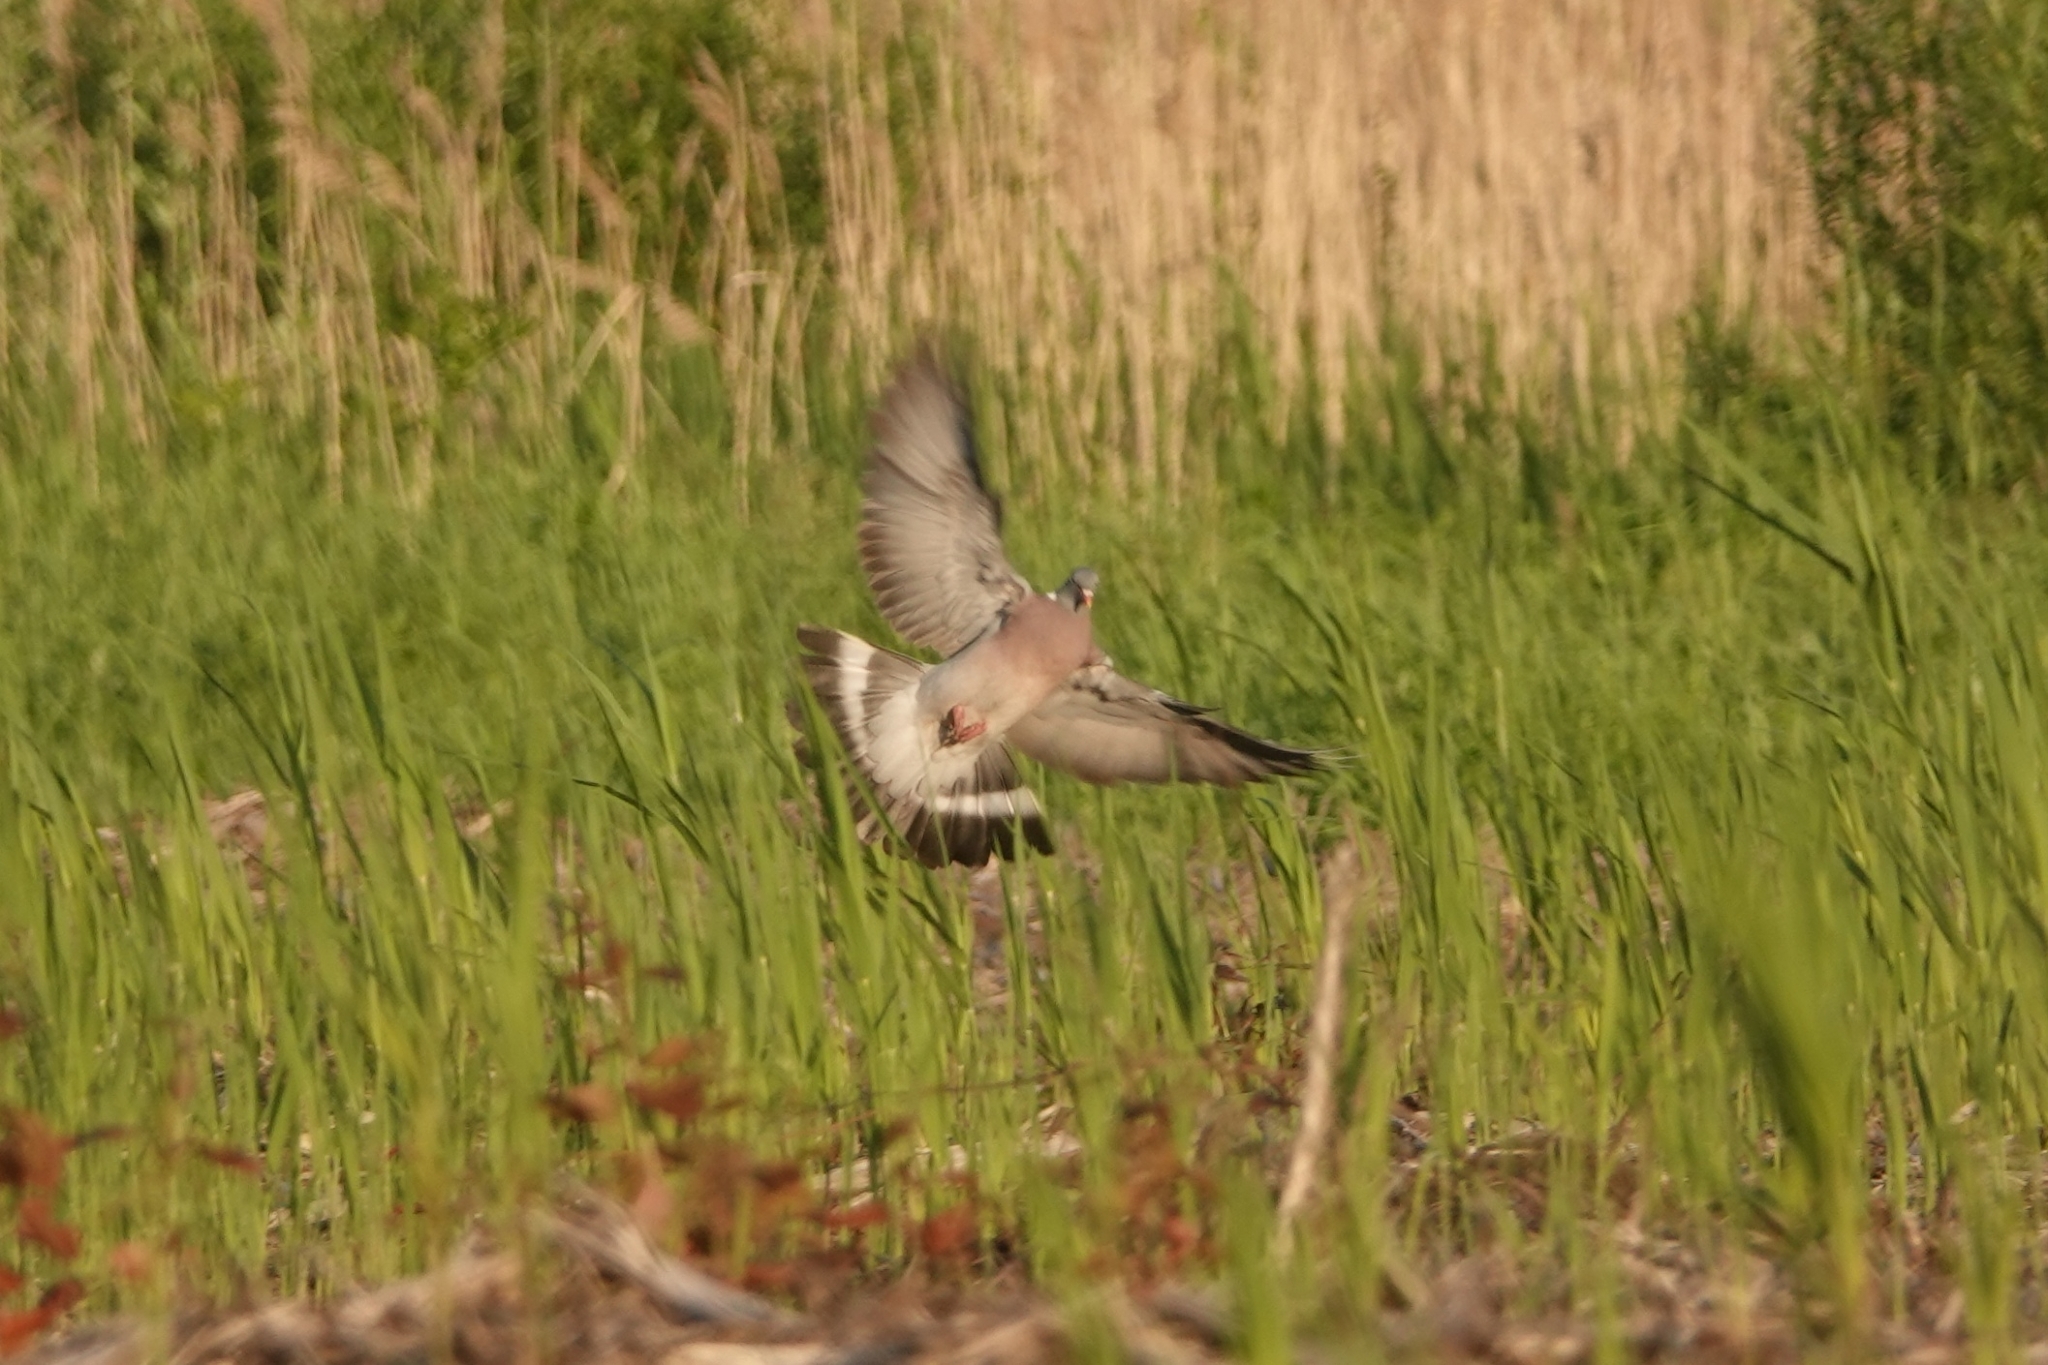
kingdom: Animalia
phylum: Chordata
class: Aves
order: Columbiformes
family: Columbidae
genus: Columba
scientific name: Columba palumbus
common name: Common wood pigeon
